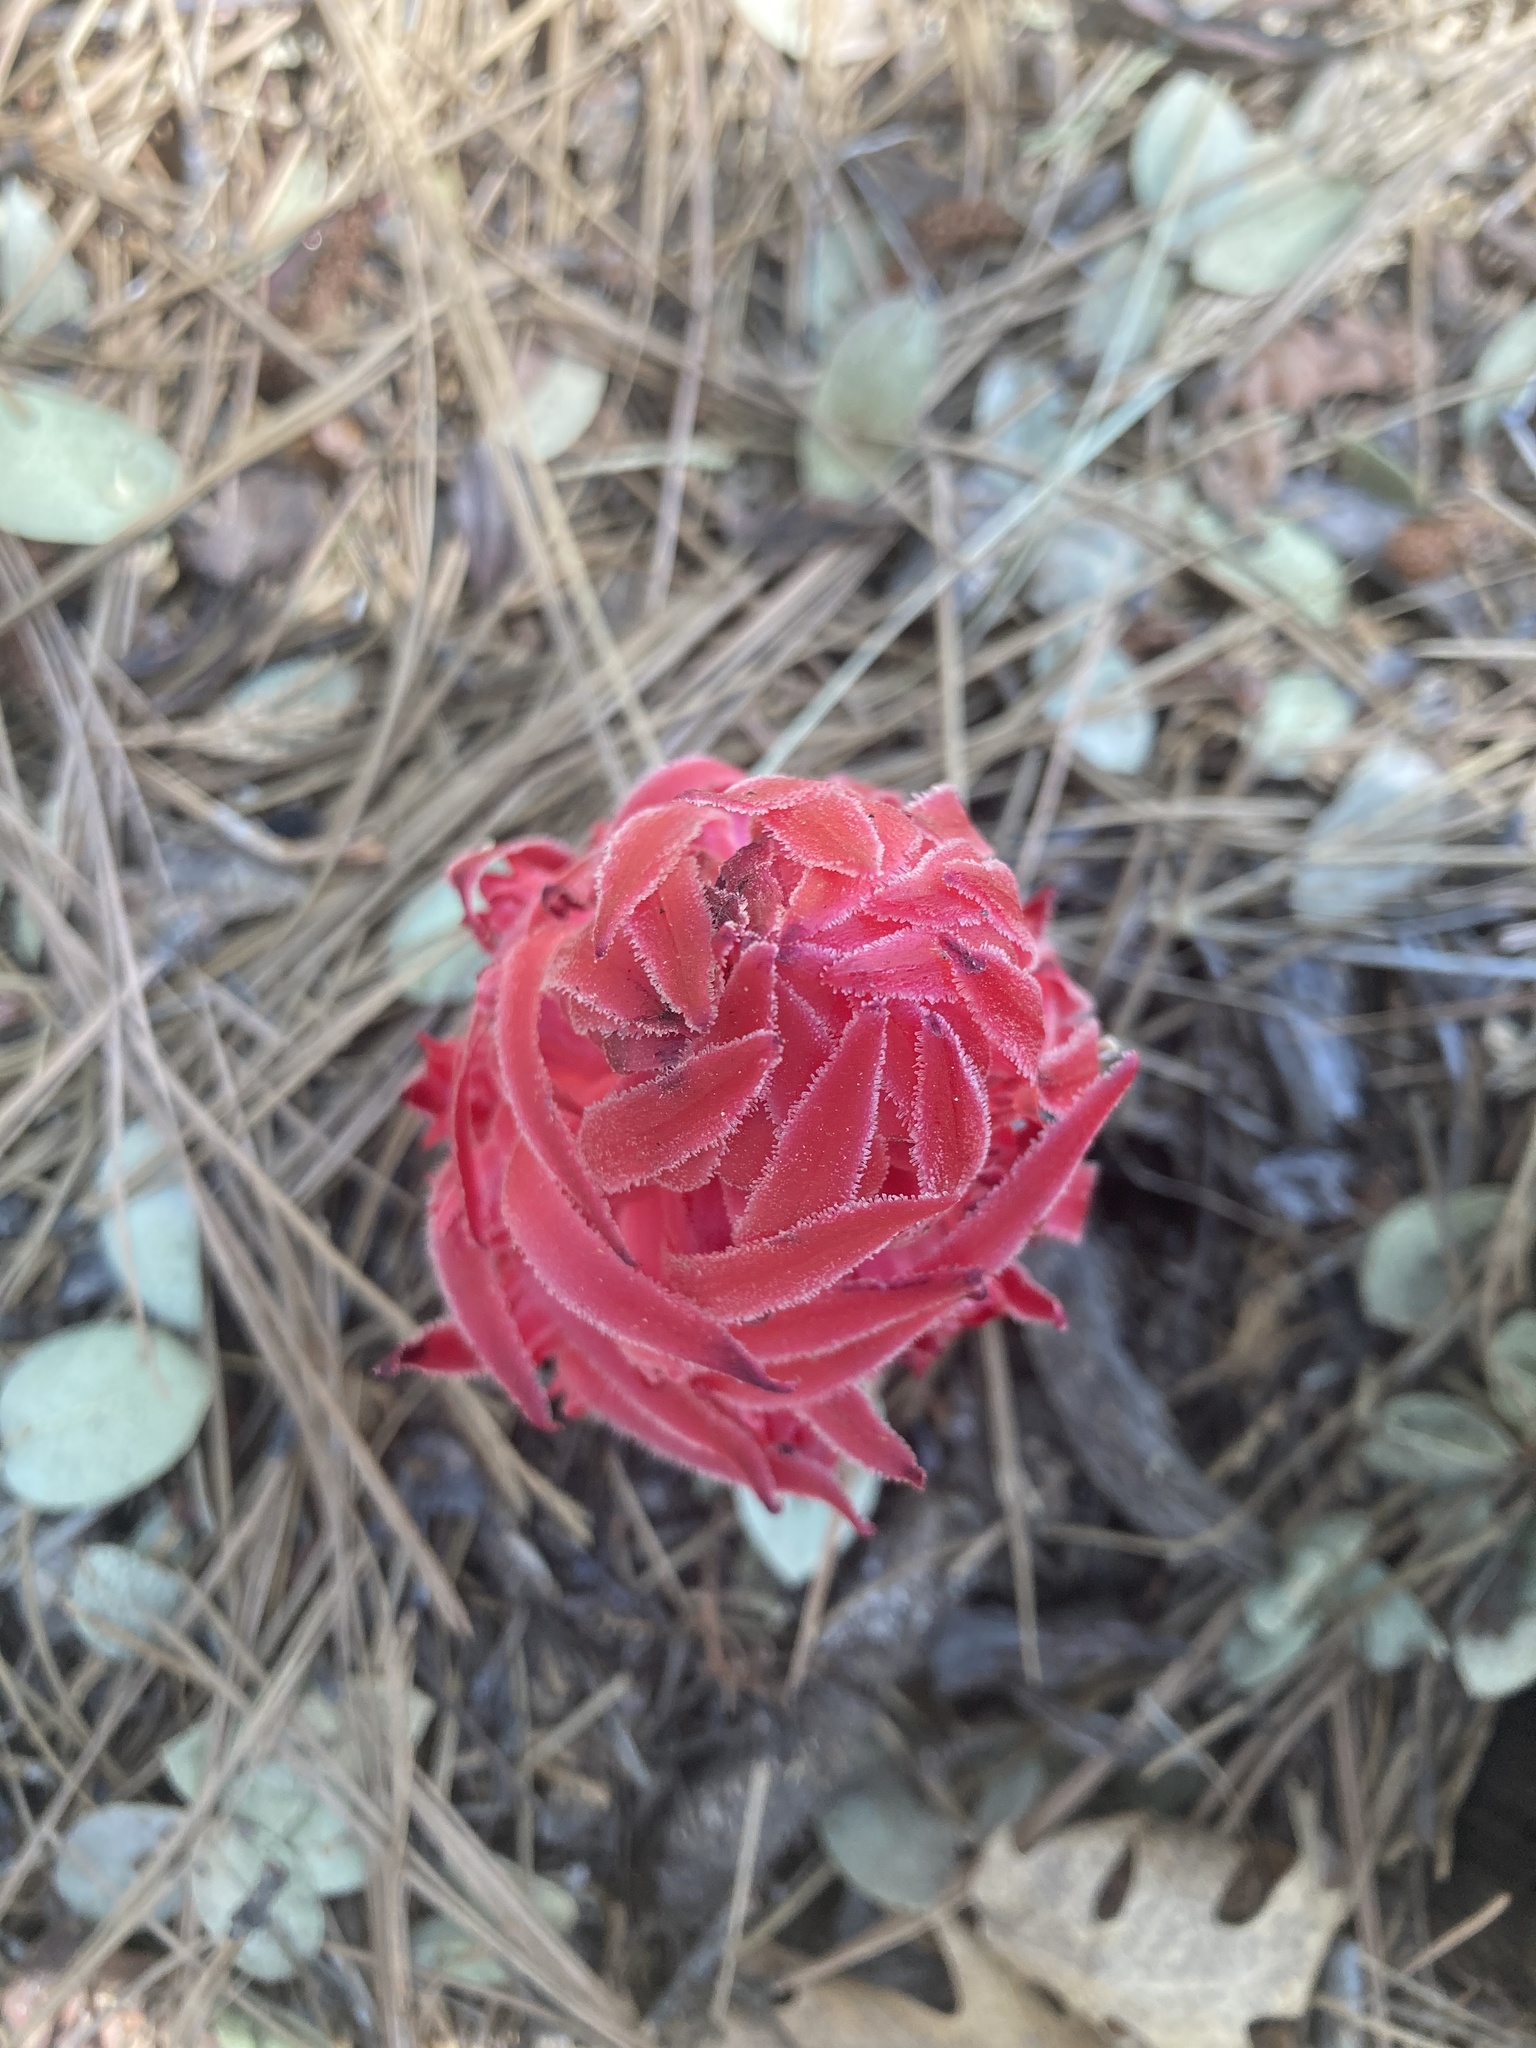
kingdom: Plantae
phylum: Tracheophyta
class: Magnoliopsida
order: Ericales
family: Ericaceae
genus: Sarcodes
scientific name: Sarcodes sanguinea
